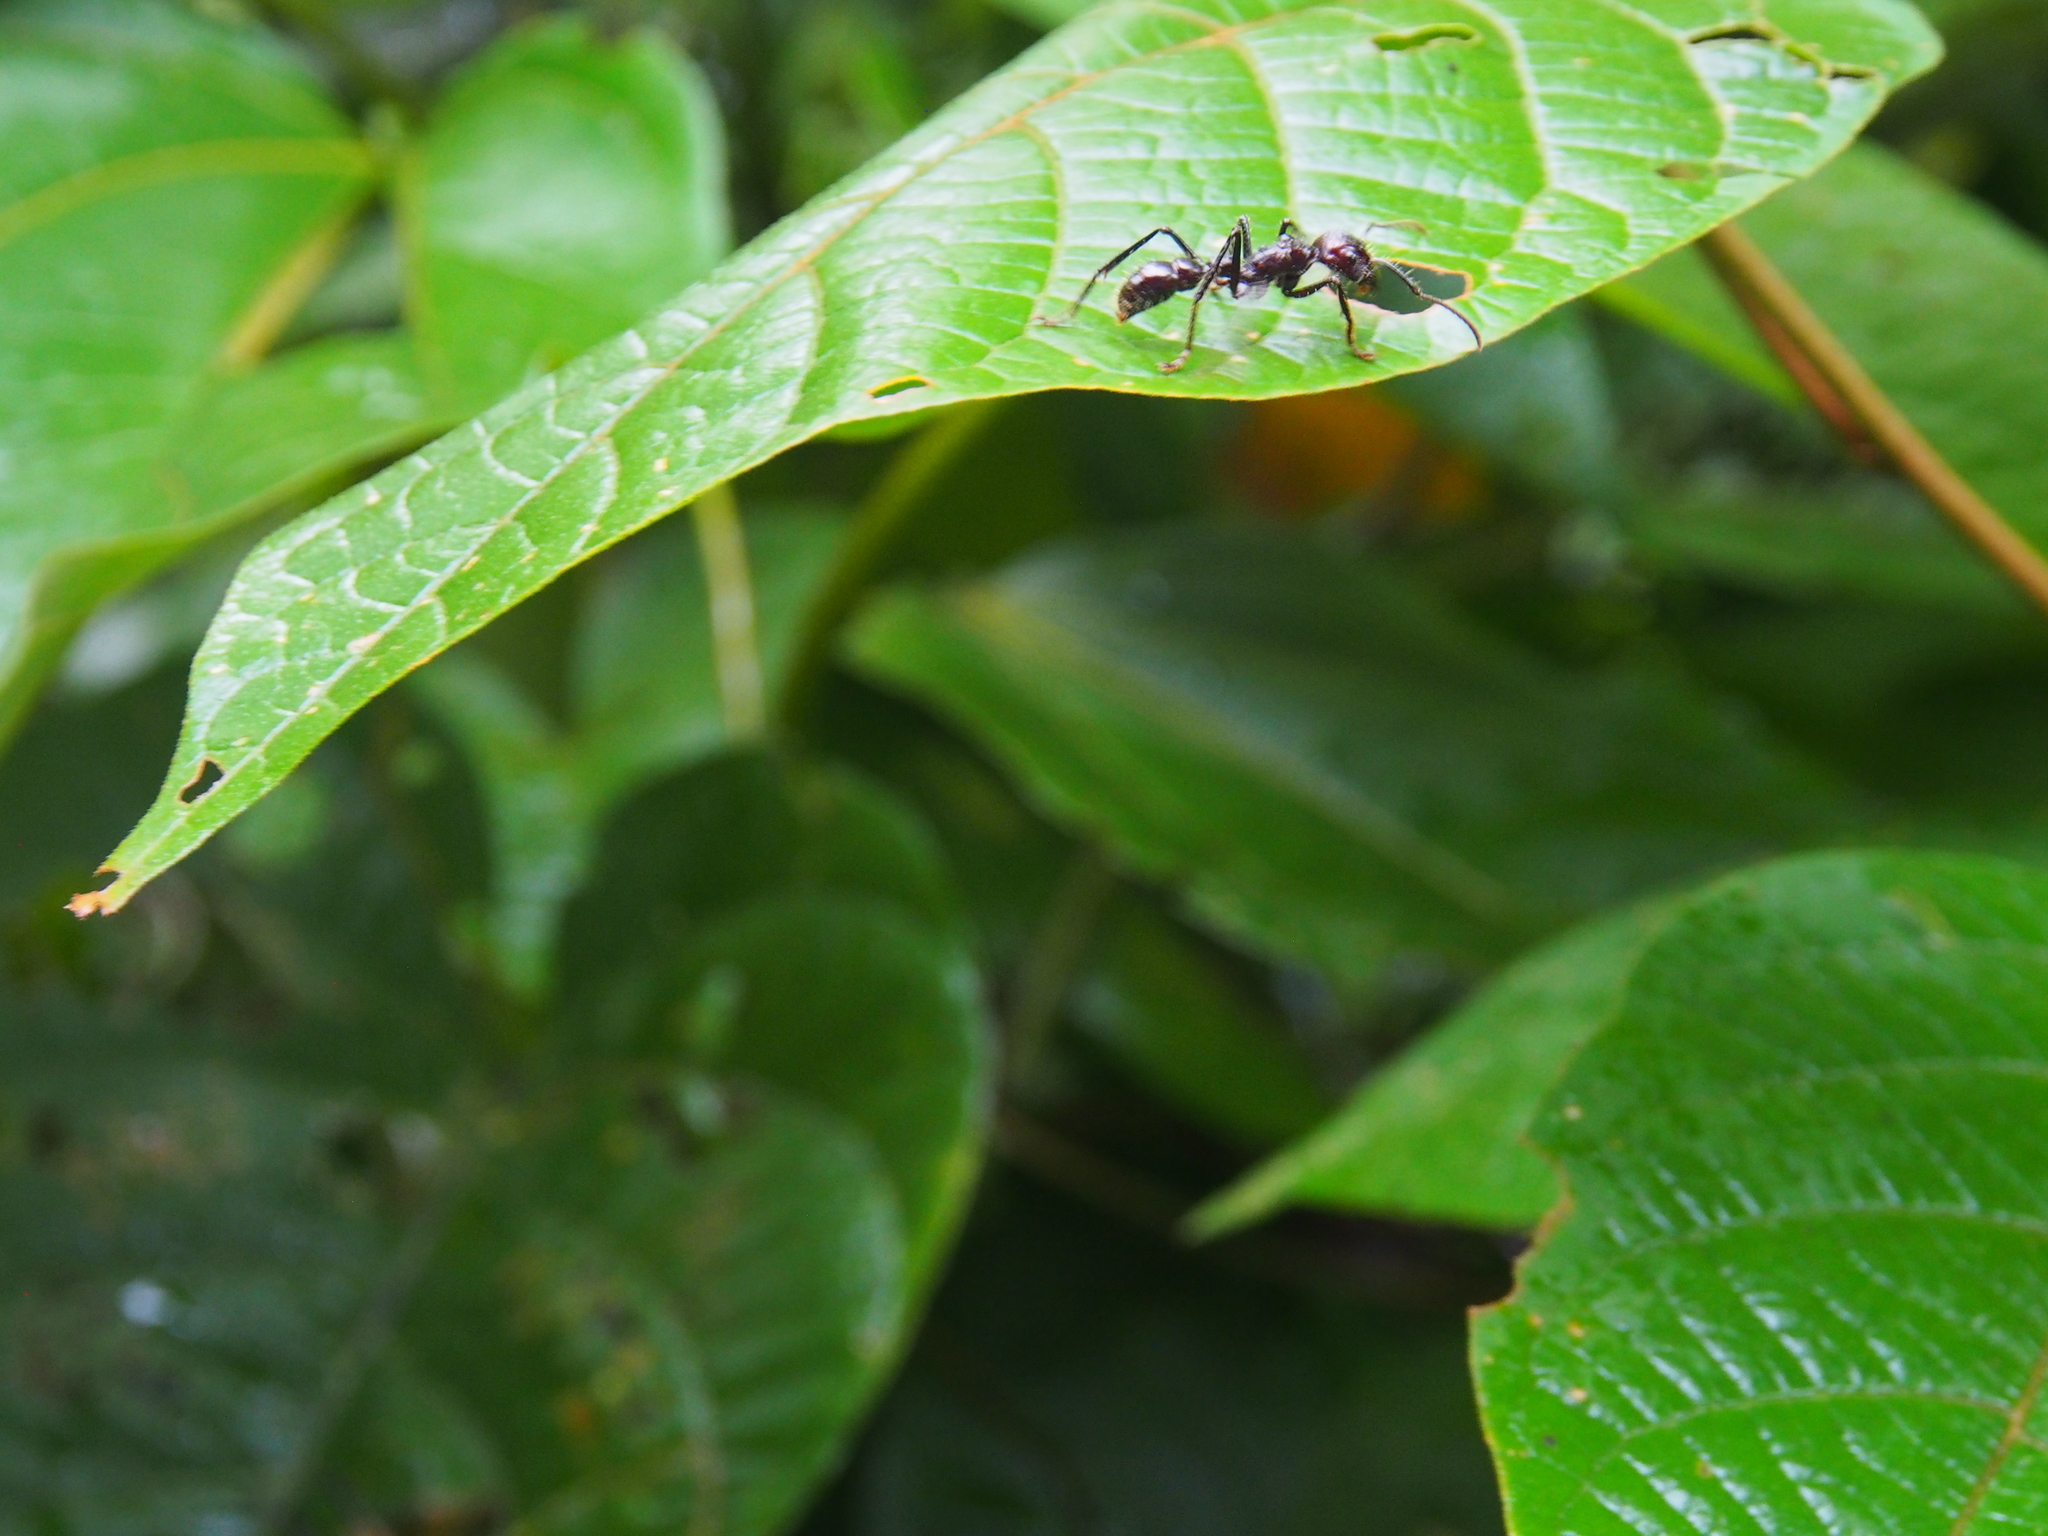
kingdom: Animalia
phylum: Arthropoda
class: Insecta
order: Hymenoptera
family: Formicidae
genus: Paraponera
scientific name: Paraponera clavata
